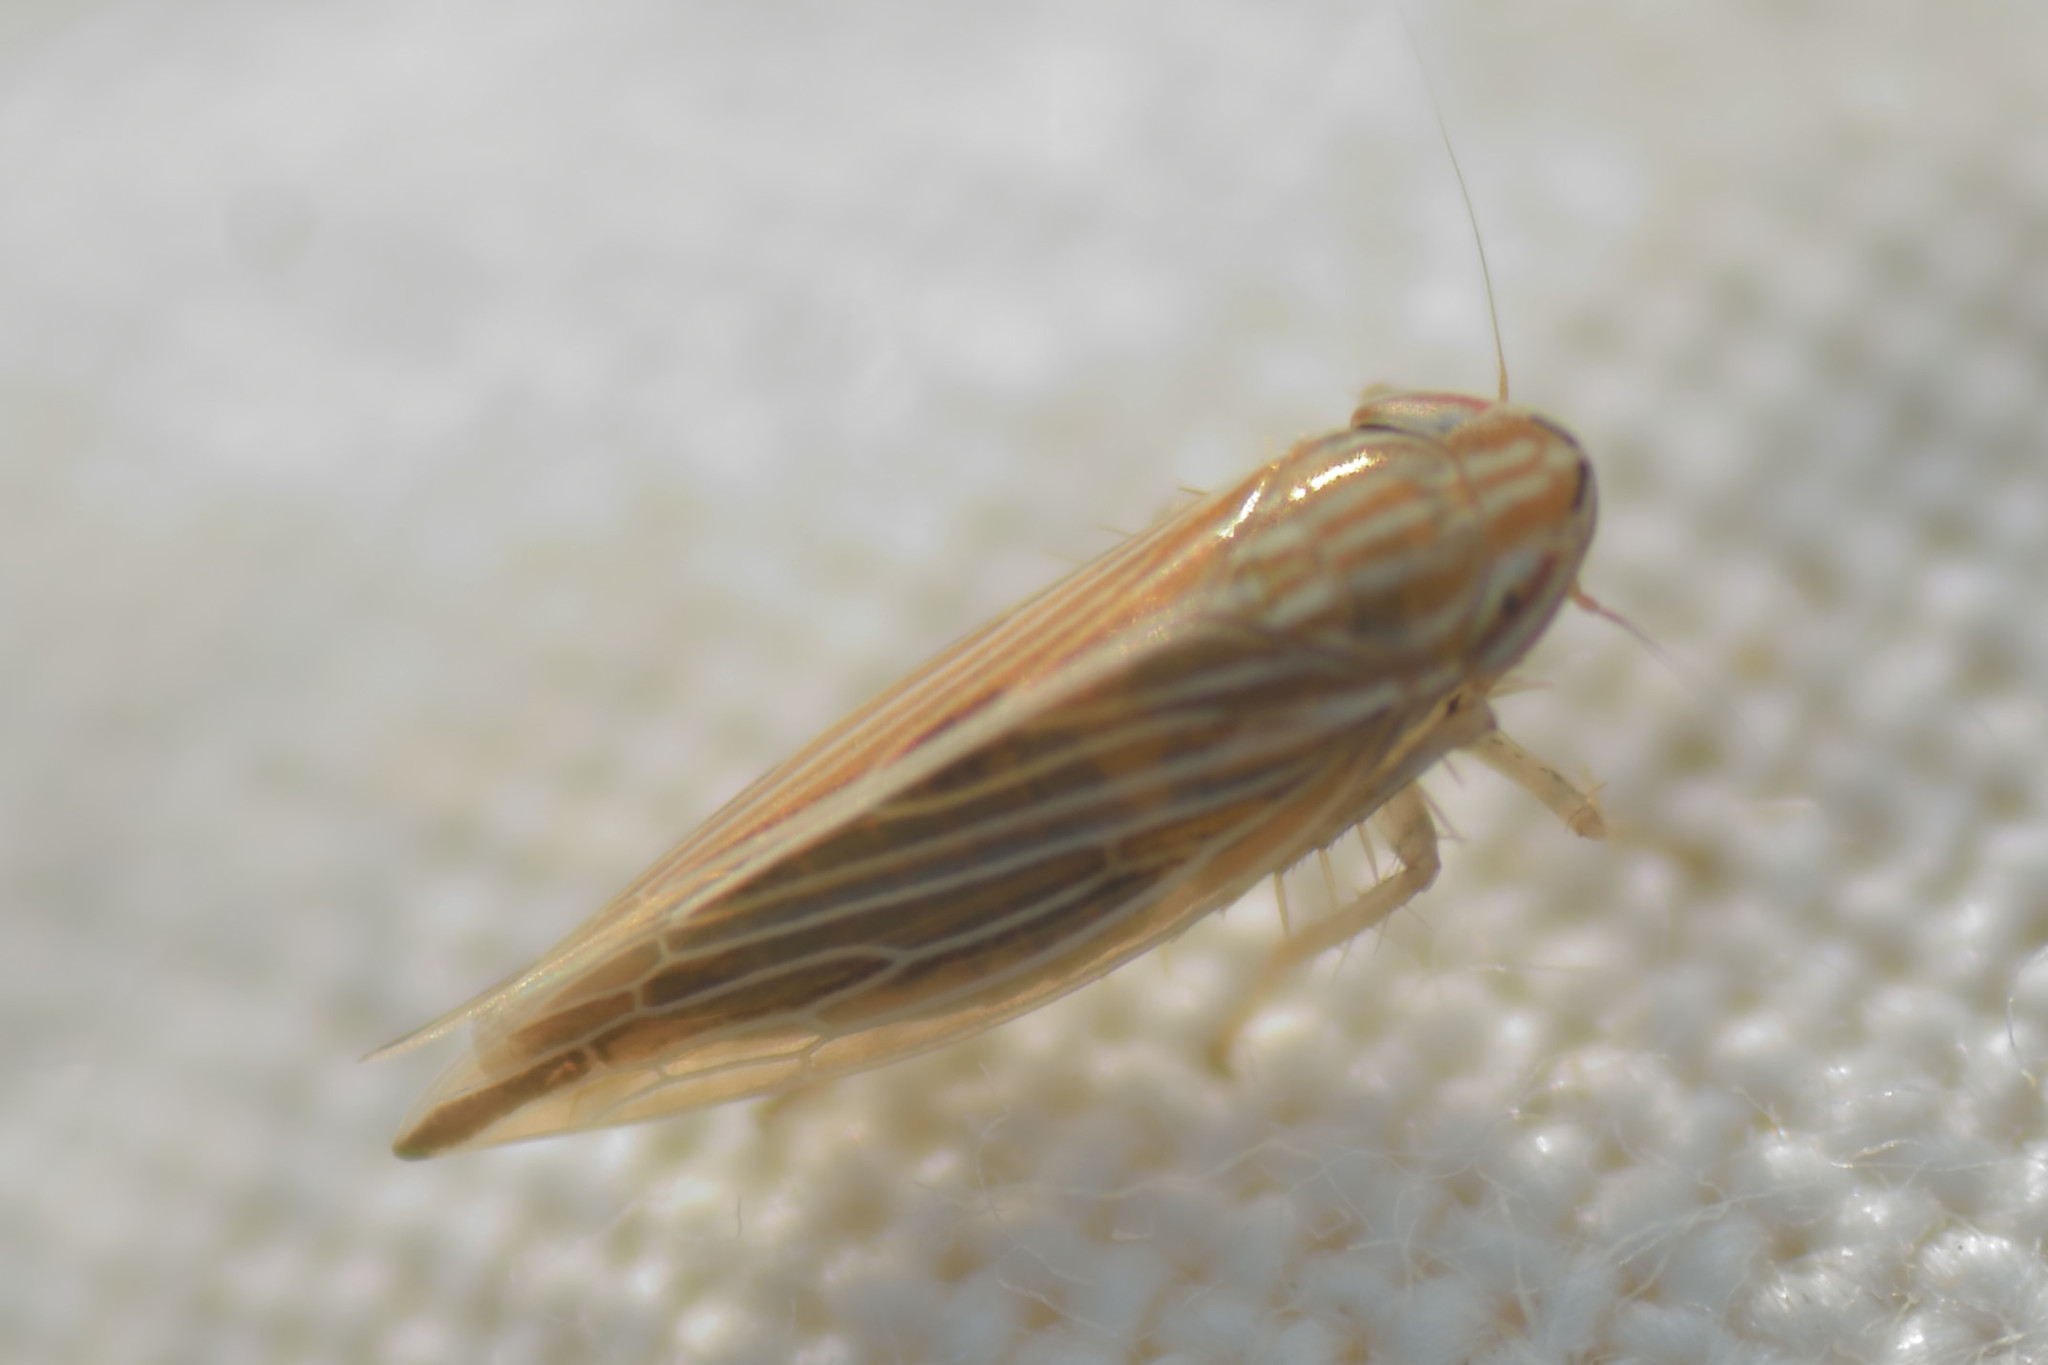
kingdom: Animalia
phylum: Arthropoda
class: Insecta
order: Hemiptera
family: Cicadellidae
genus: Mocydia
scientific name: Mocydia crocea
